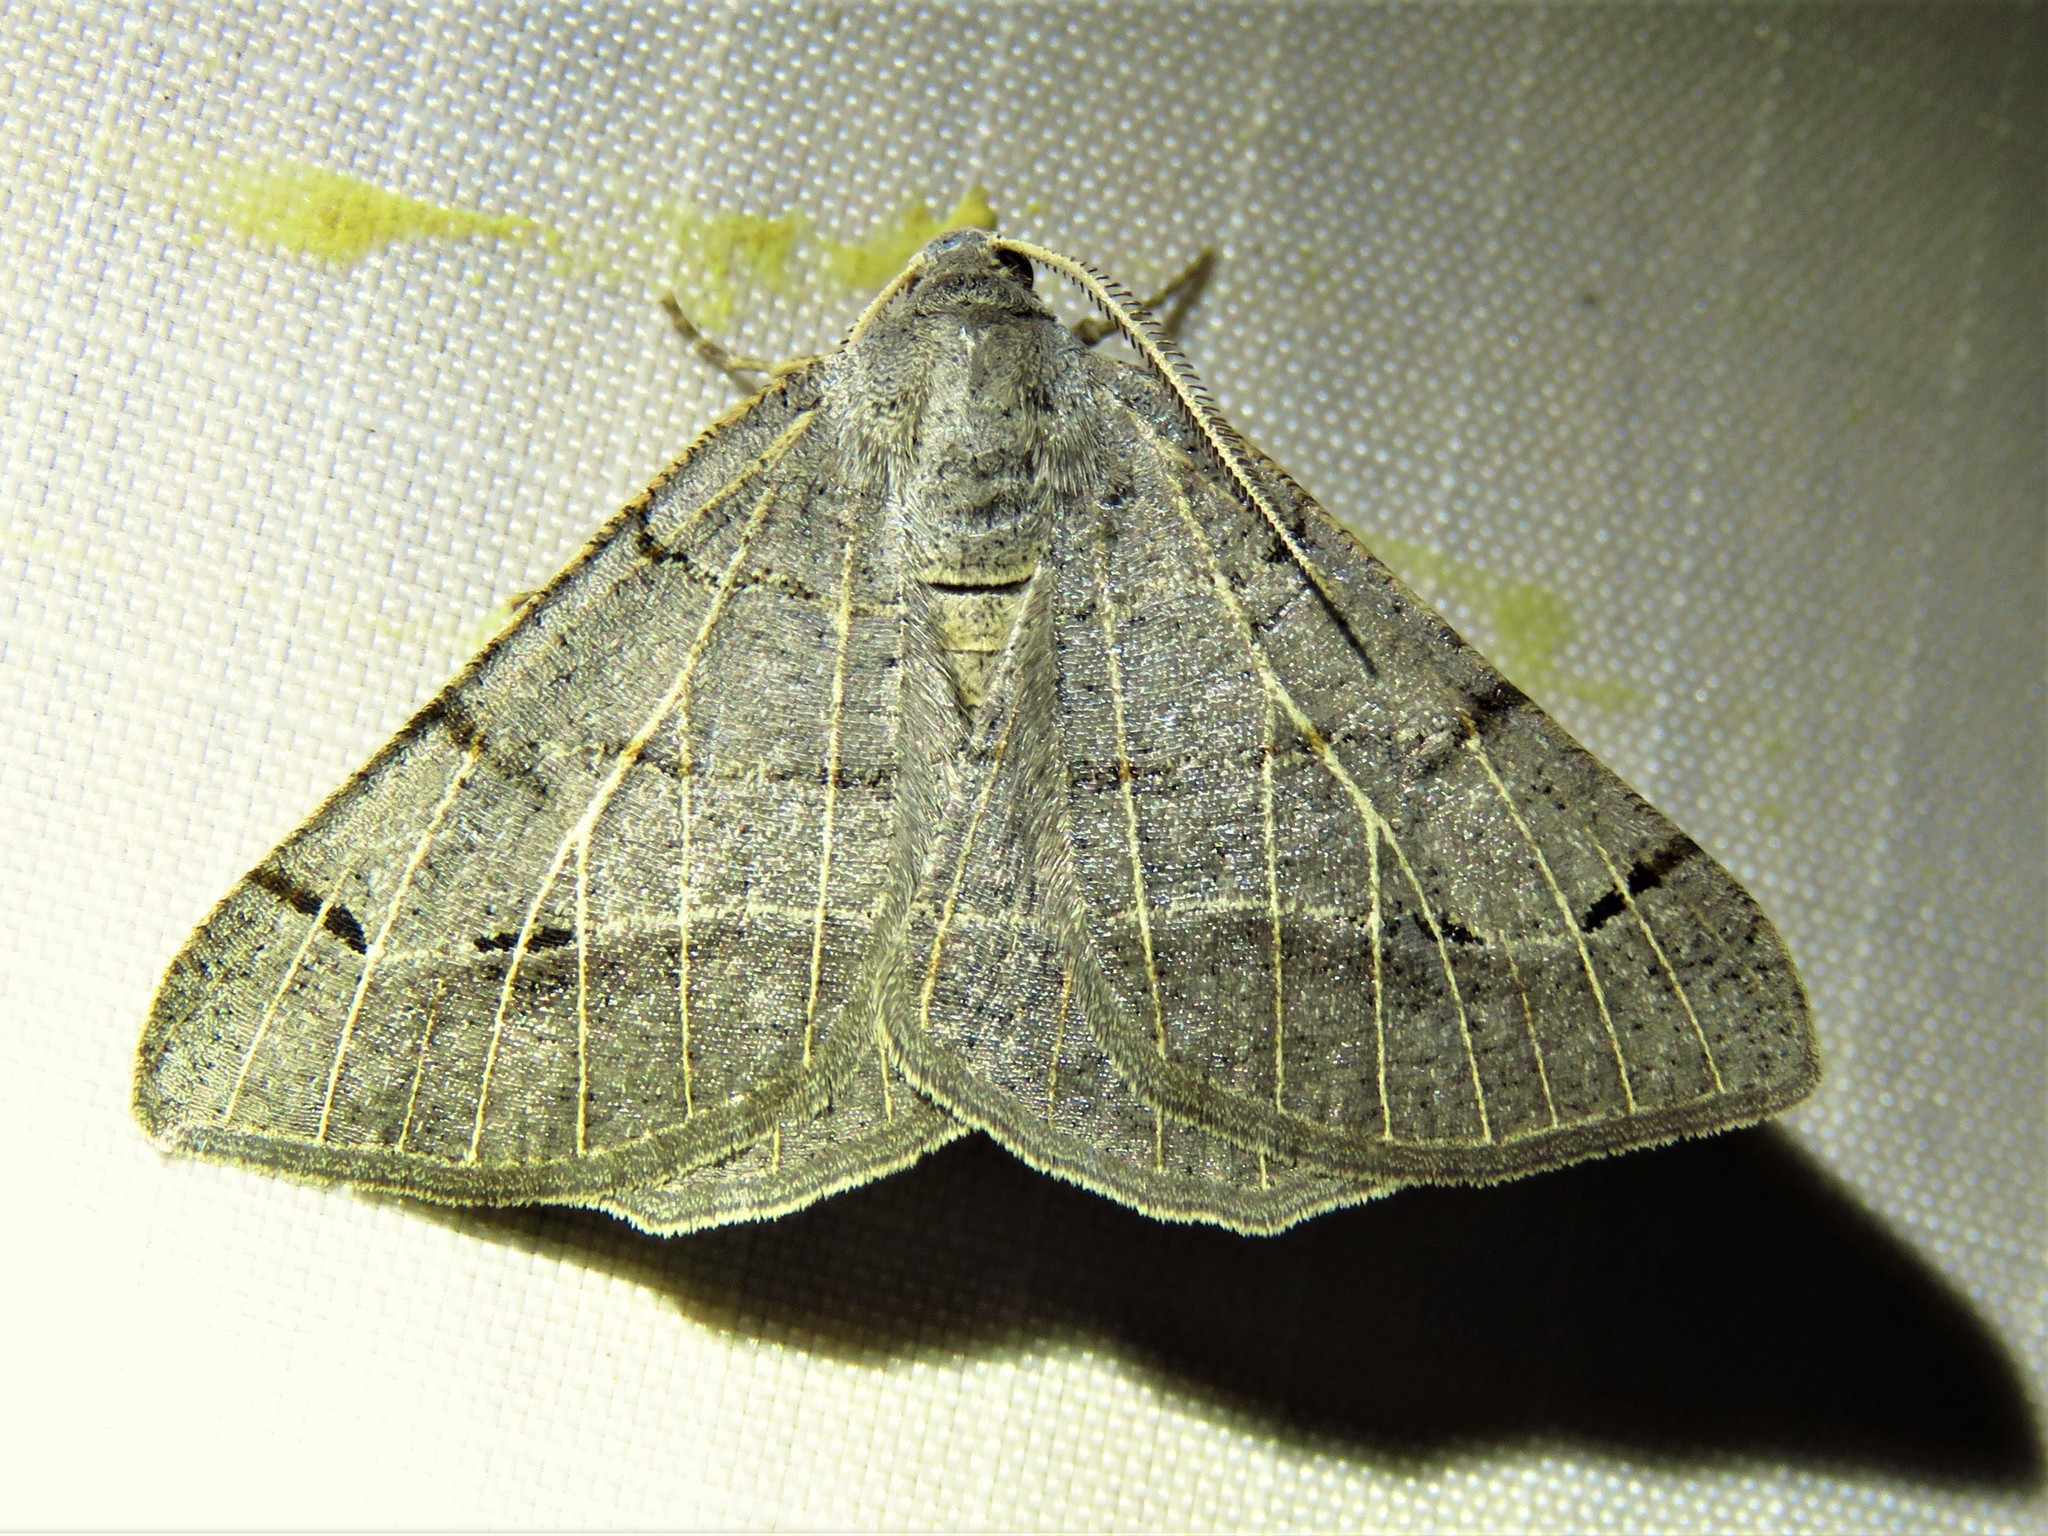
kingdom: Animalia
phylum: Arthropoda
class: Insecta
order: Lepidoptera
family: Geometridae
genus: Isturgia
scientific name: Isturgia dislocaria
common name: Pale-viened enconista
